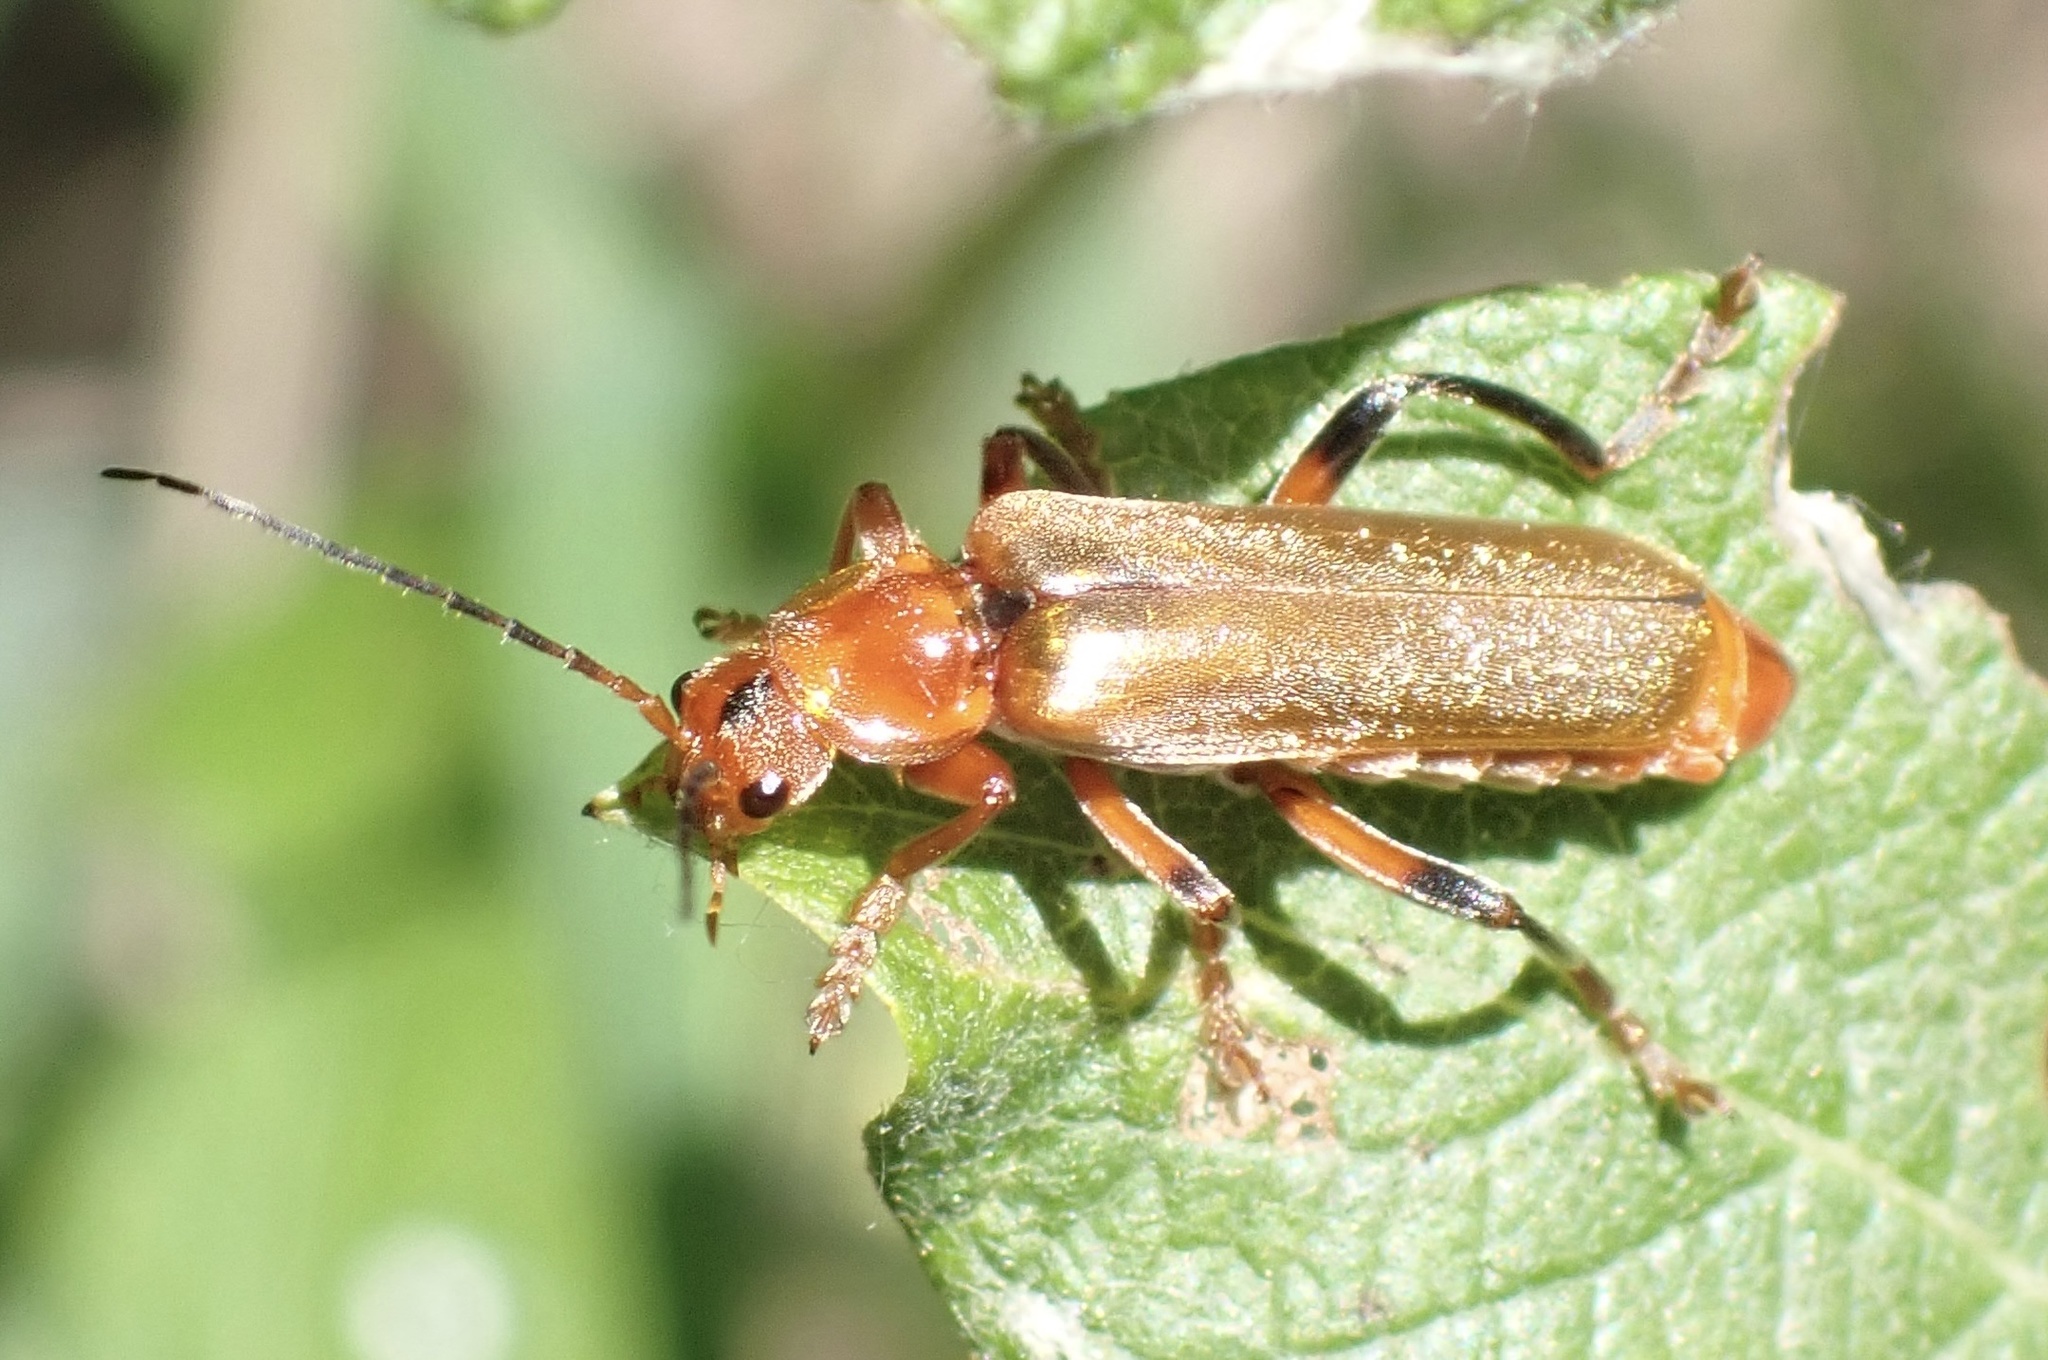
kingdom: Animalia
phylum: Arthropoda
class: Insecta
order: Coleoptera
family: Cantharidae
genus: Cantharis
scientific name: Cantharis livida
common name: Livid soldier beetle
